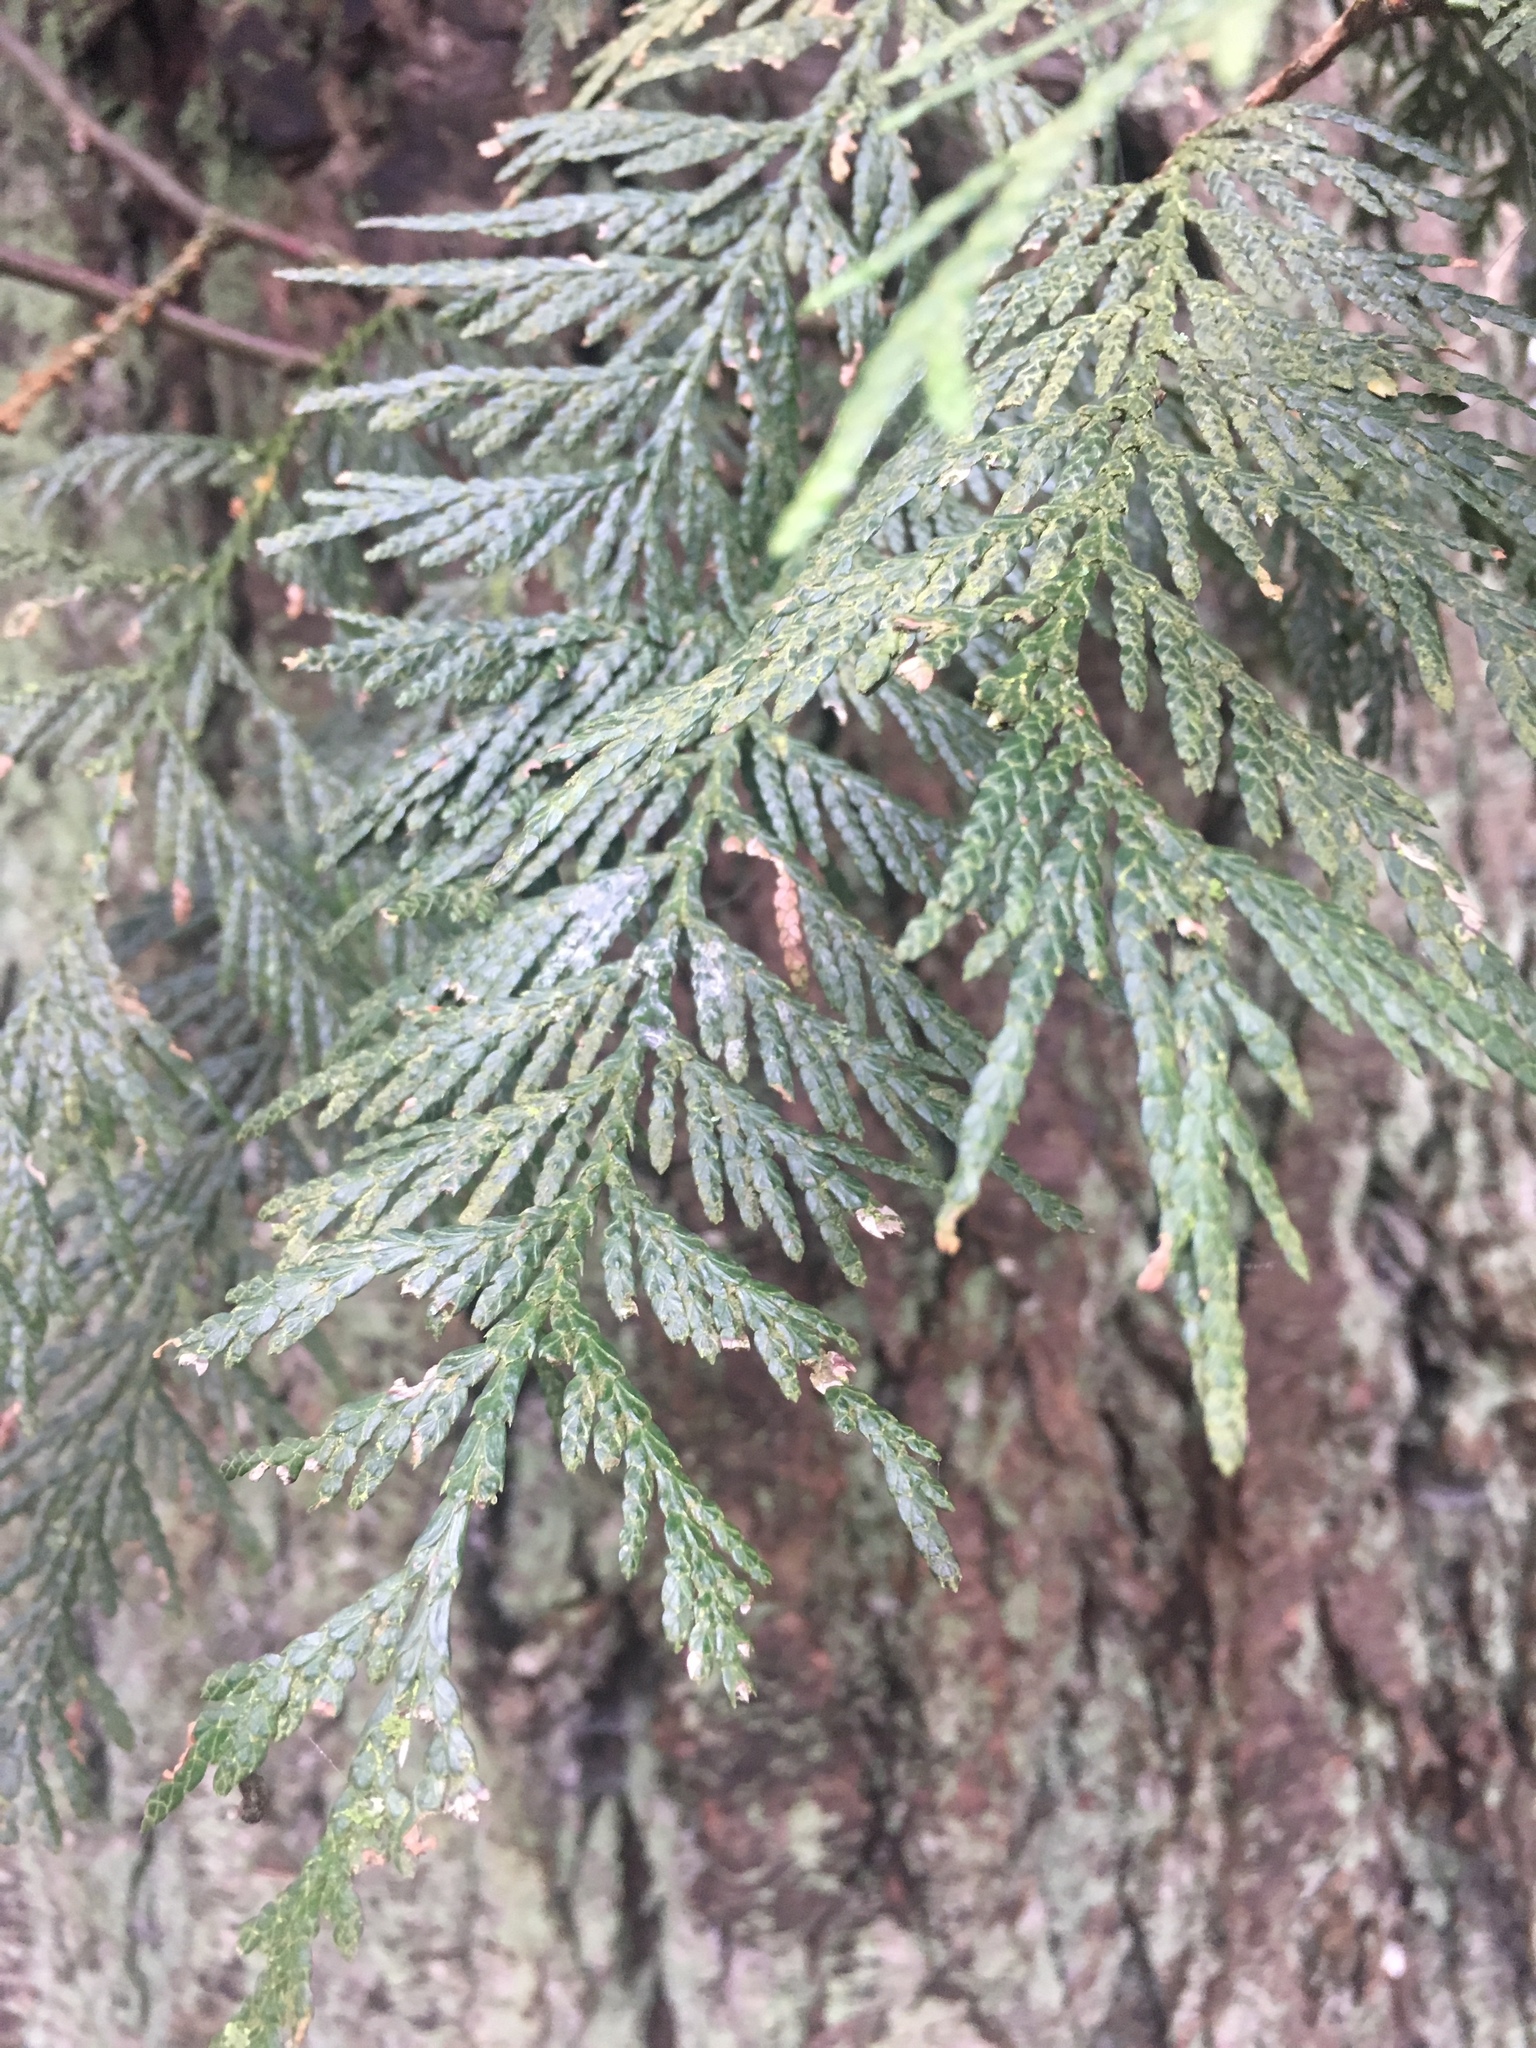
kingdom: Plantae
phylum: Tracheophyta
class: Pinopsida
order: Pinales
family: Cupressaceae
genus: Thuja
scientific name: Thuja plicata
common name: Western red-cedar
